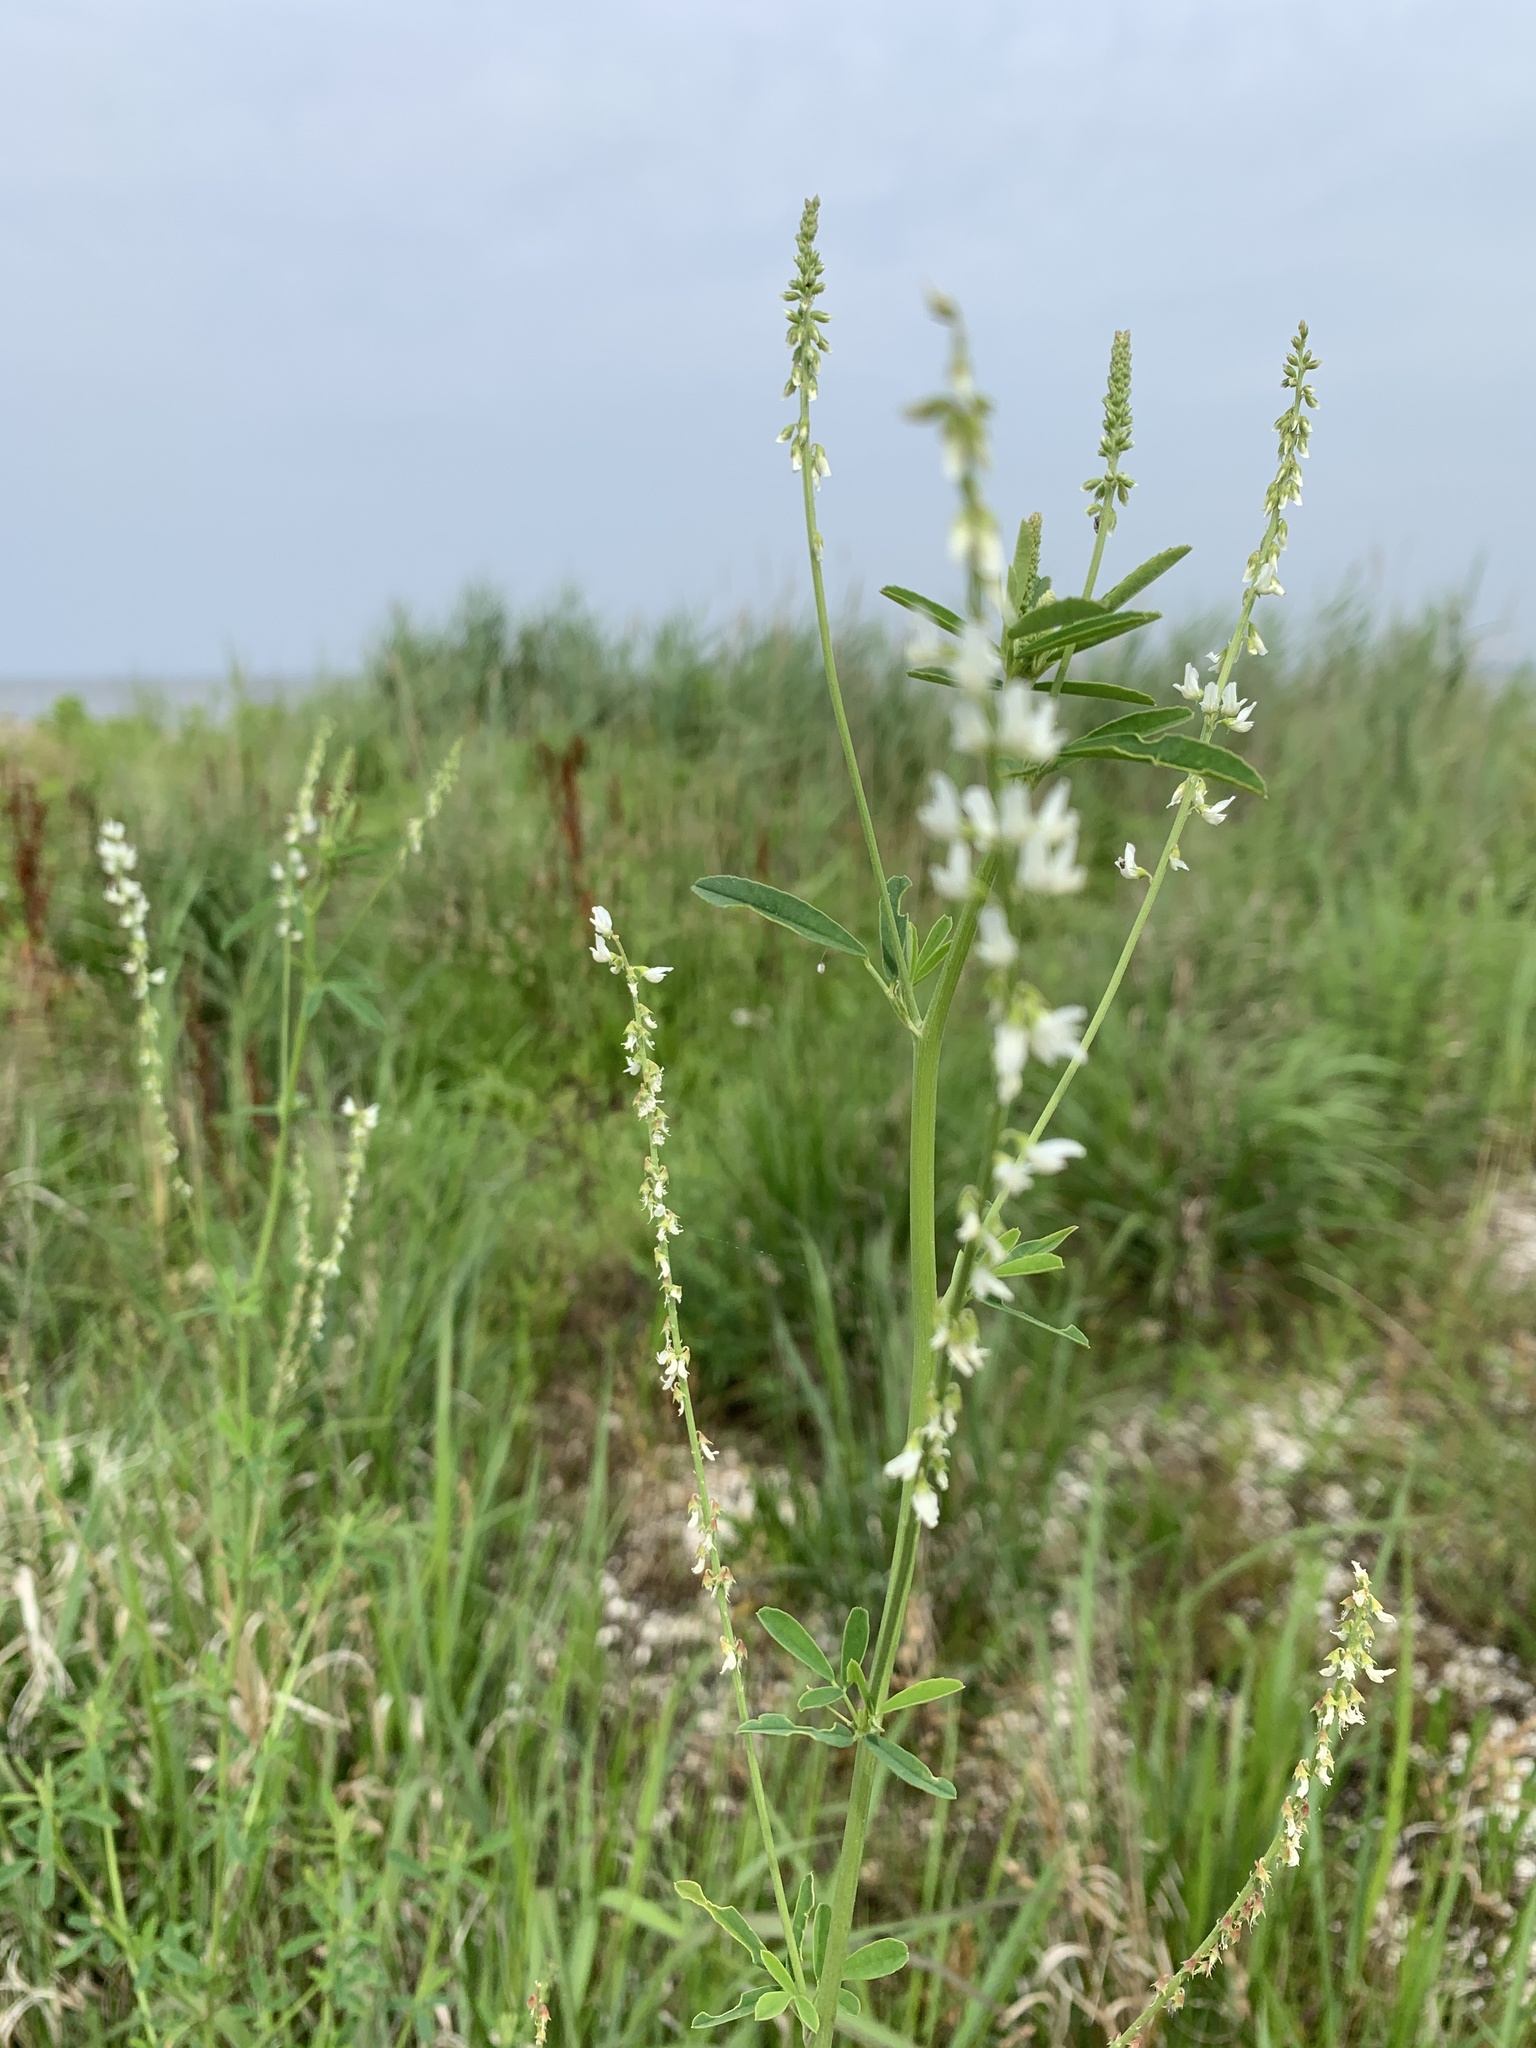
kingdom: Plantae
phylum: Tracheophyta
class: Magnoliopsida
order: Fabales
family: Fabaceae
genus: Melilotus
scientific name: Melilotus albus
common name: White melilot
